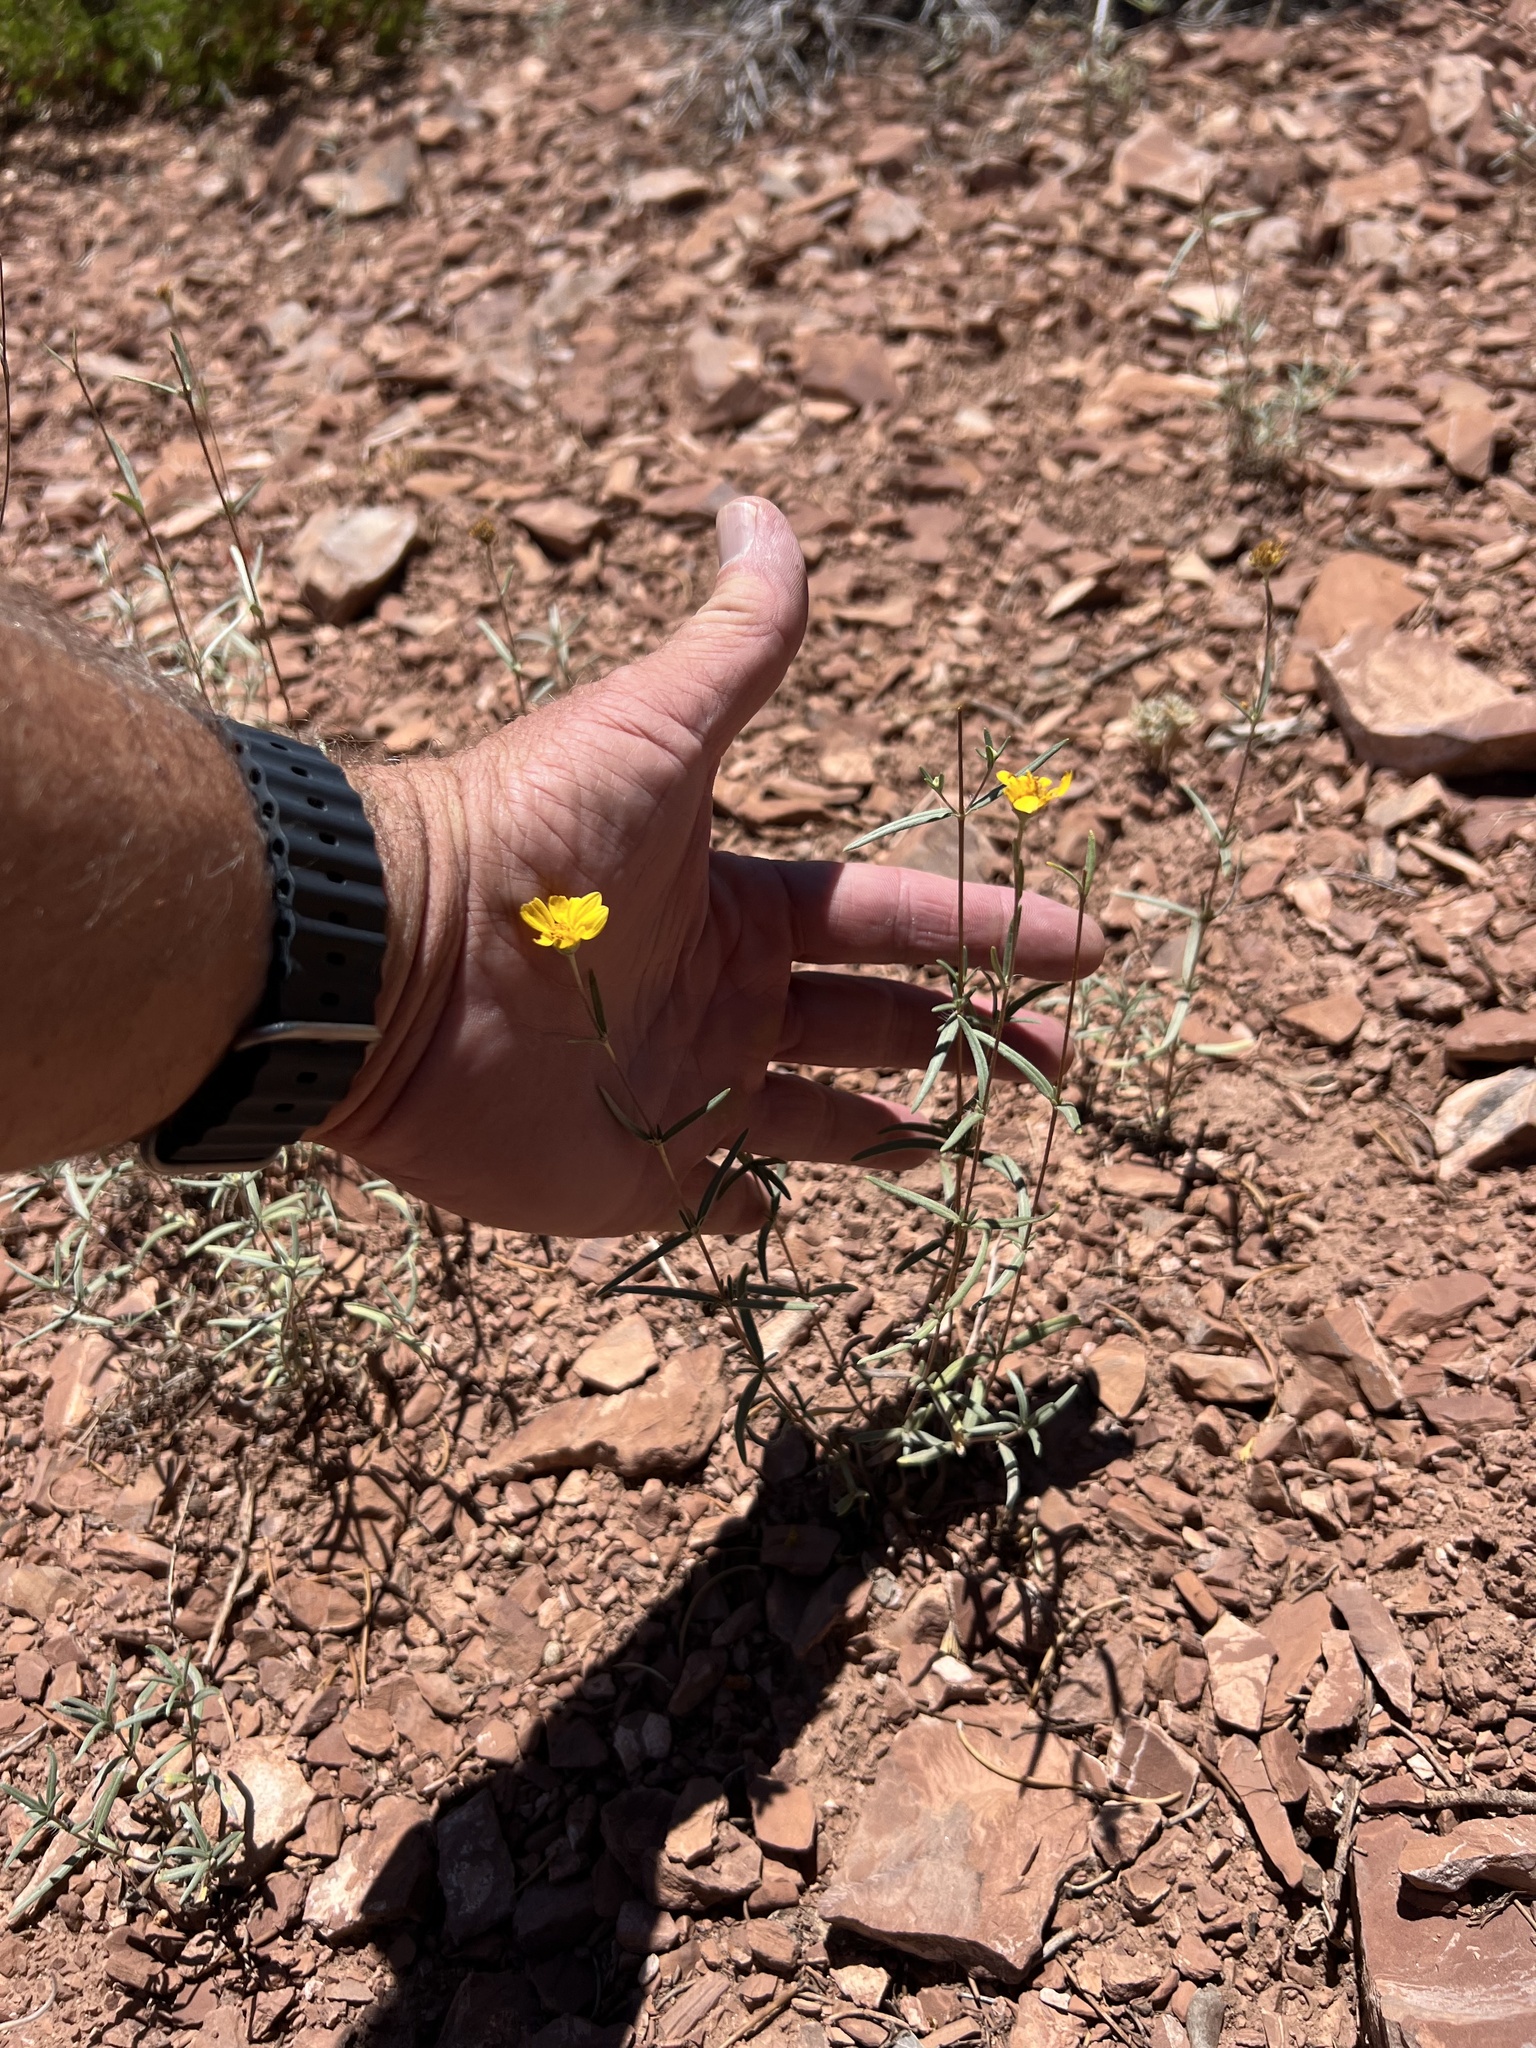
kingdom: Plantae
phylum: Tracheophyta
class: Magnoliopsida
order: Asterales
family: Asteraceae
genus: Heliomeris
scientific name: Heliomeris multiflora
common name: Showy goldeneye
